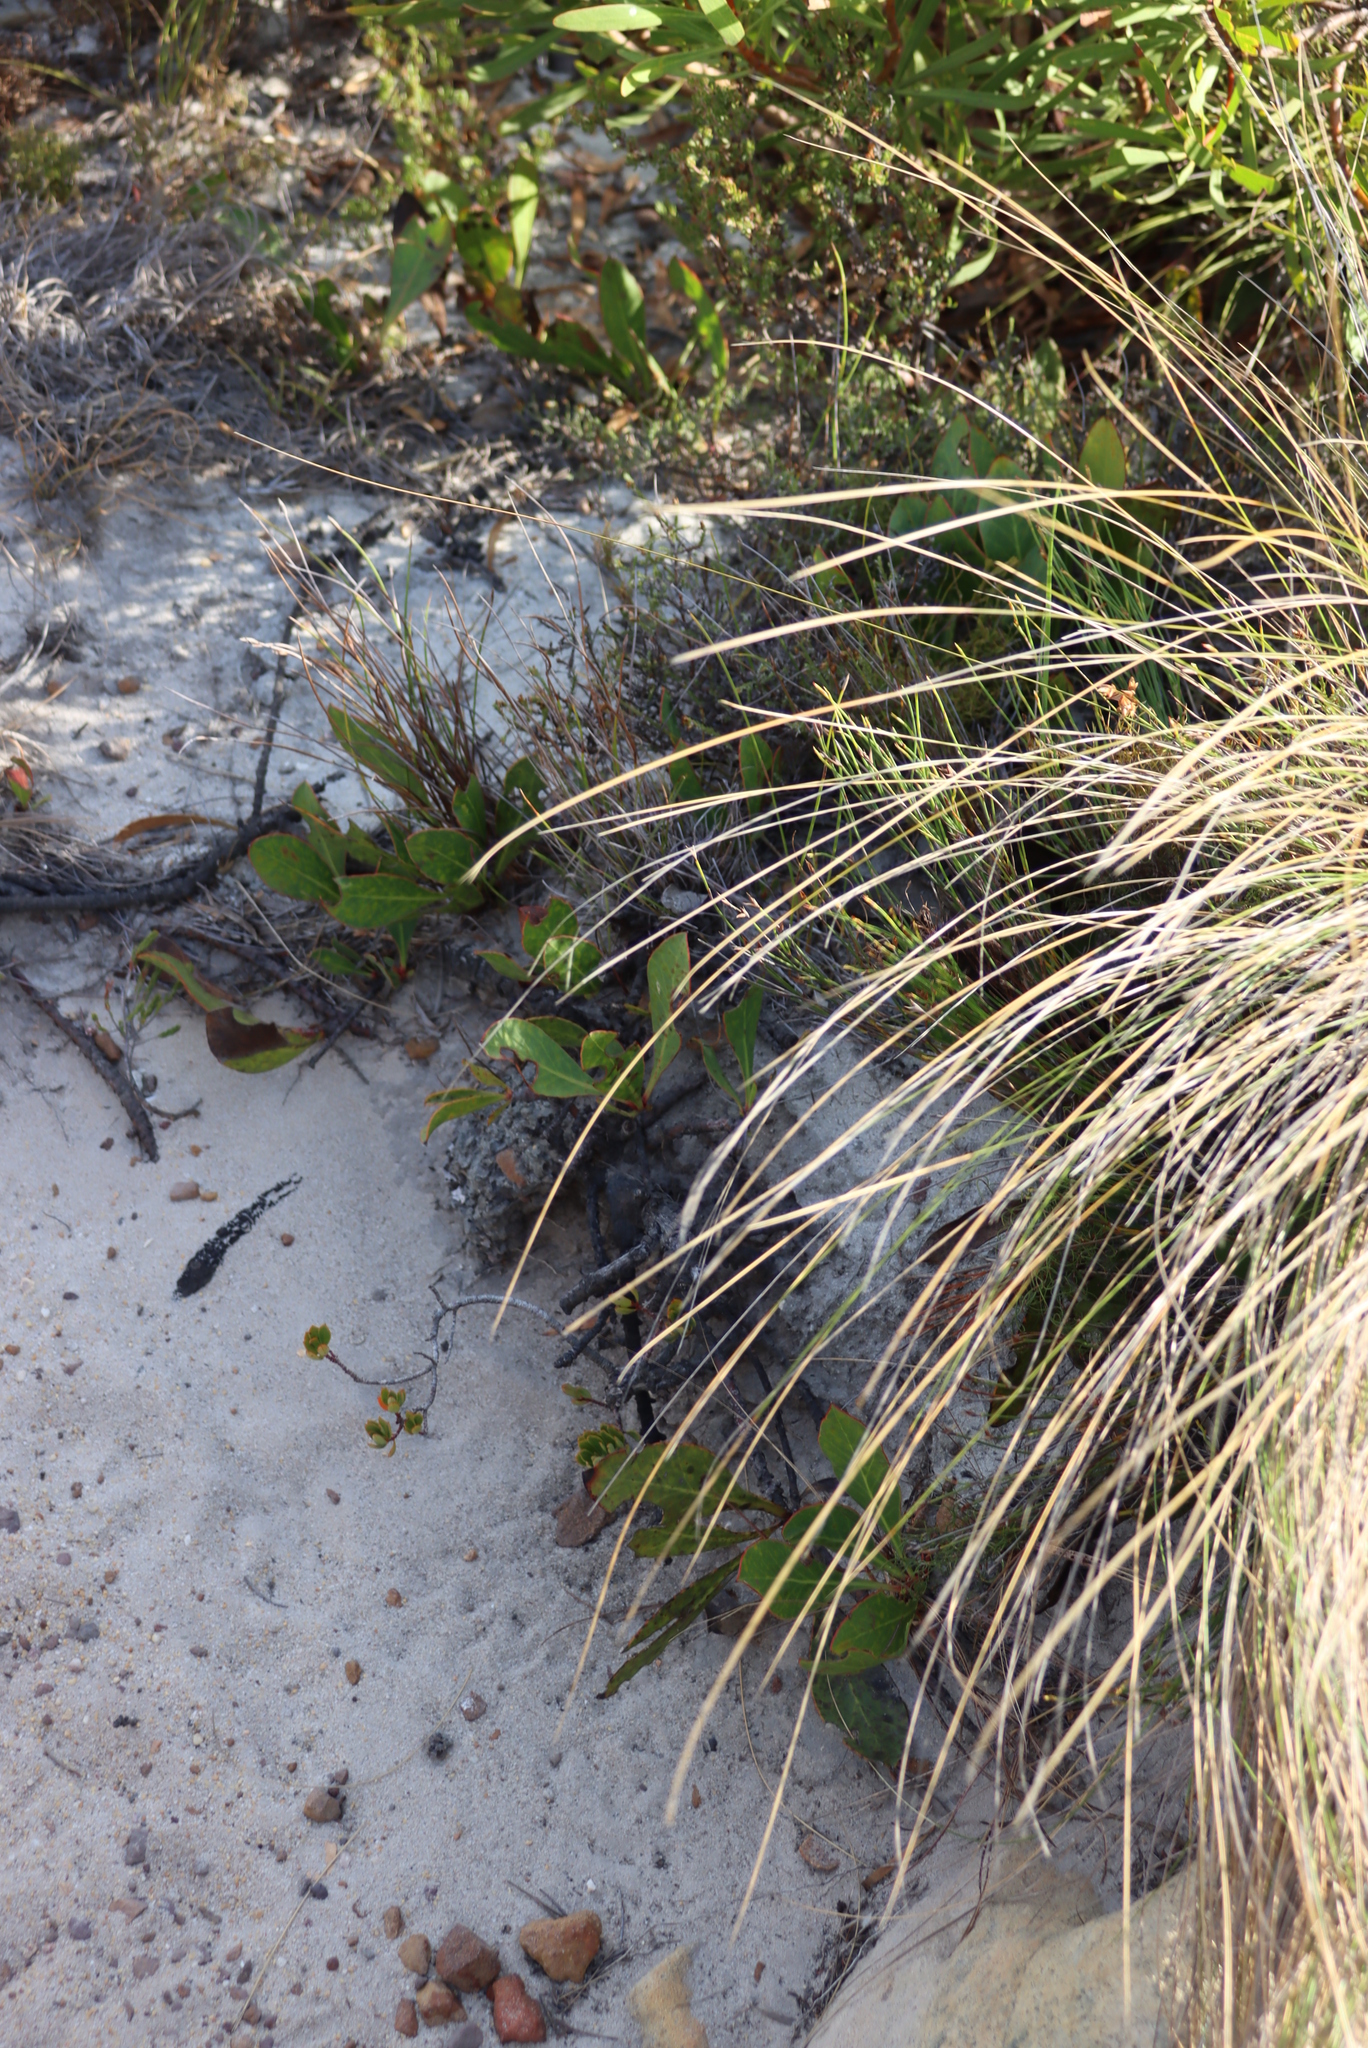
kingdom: Plantae
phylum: Tracheophyta
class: Magnoliopsida
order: Proteales
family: Proteaceae
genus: Protea
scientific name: Protea acaulos
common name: Common ground sugarbush
